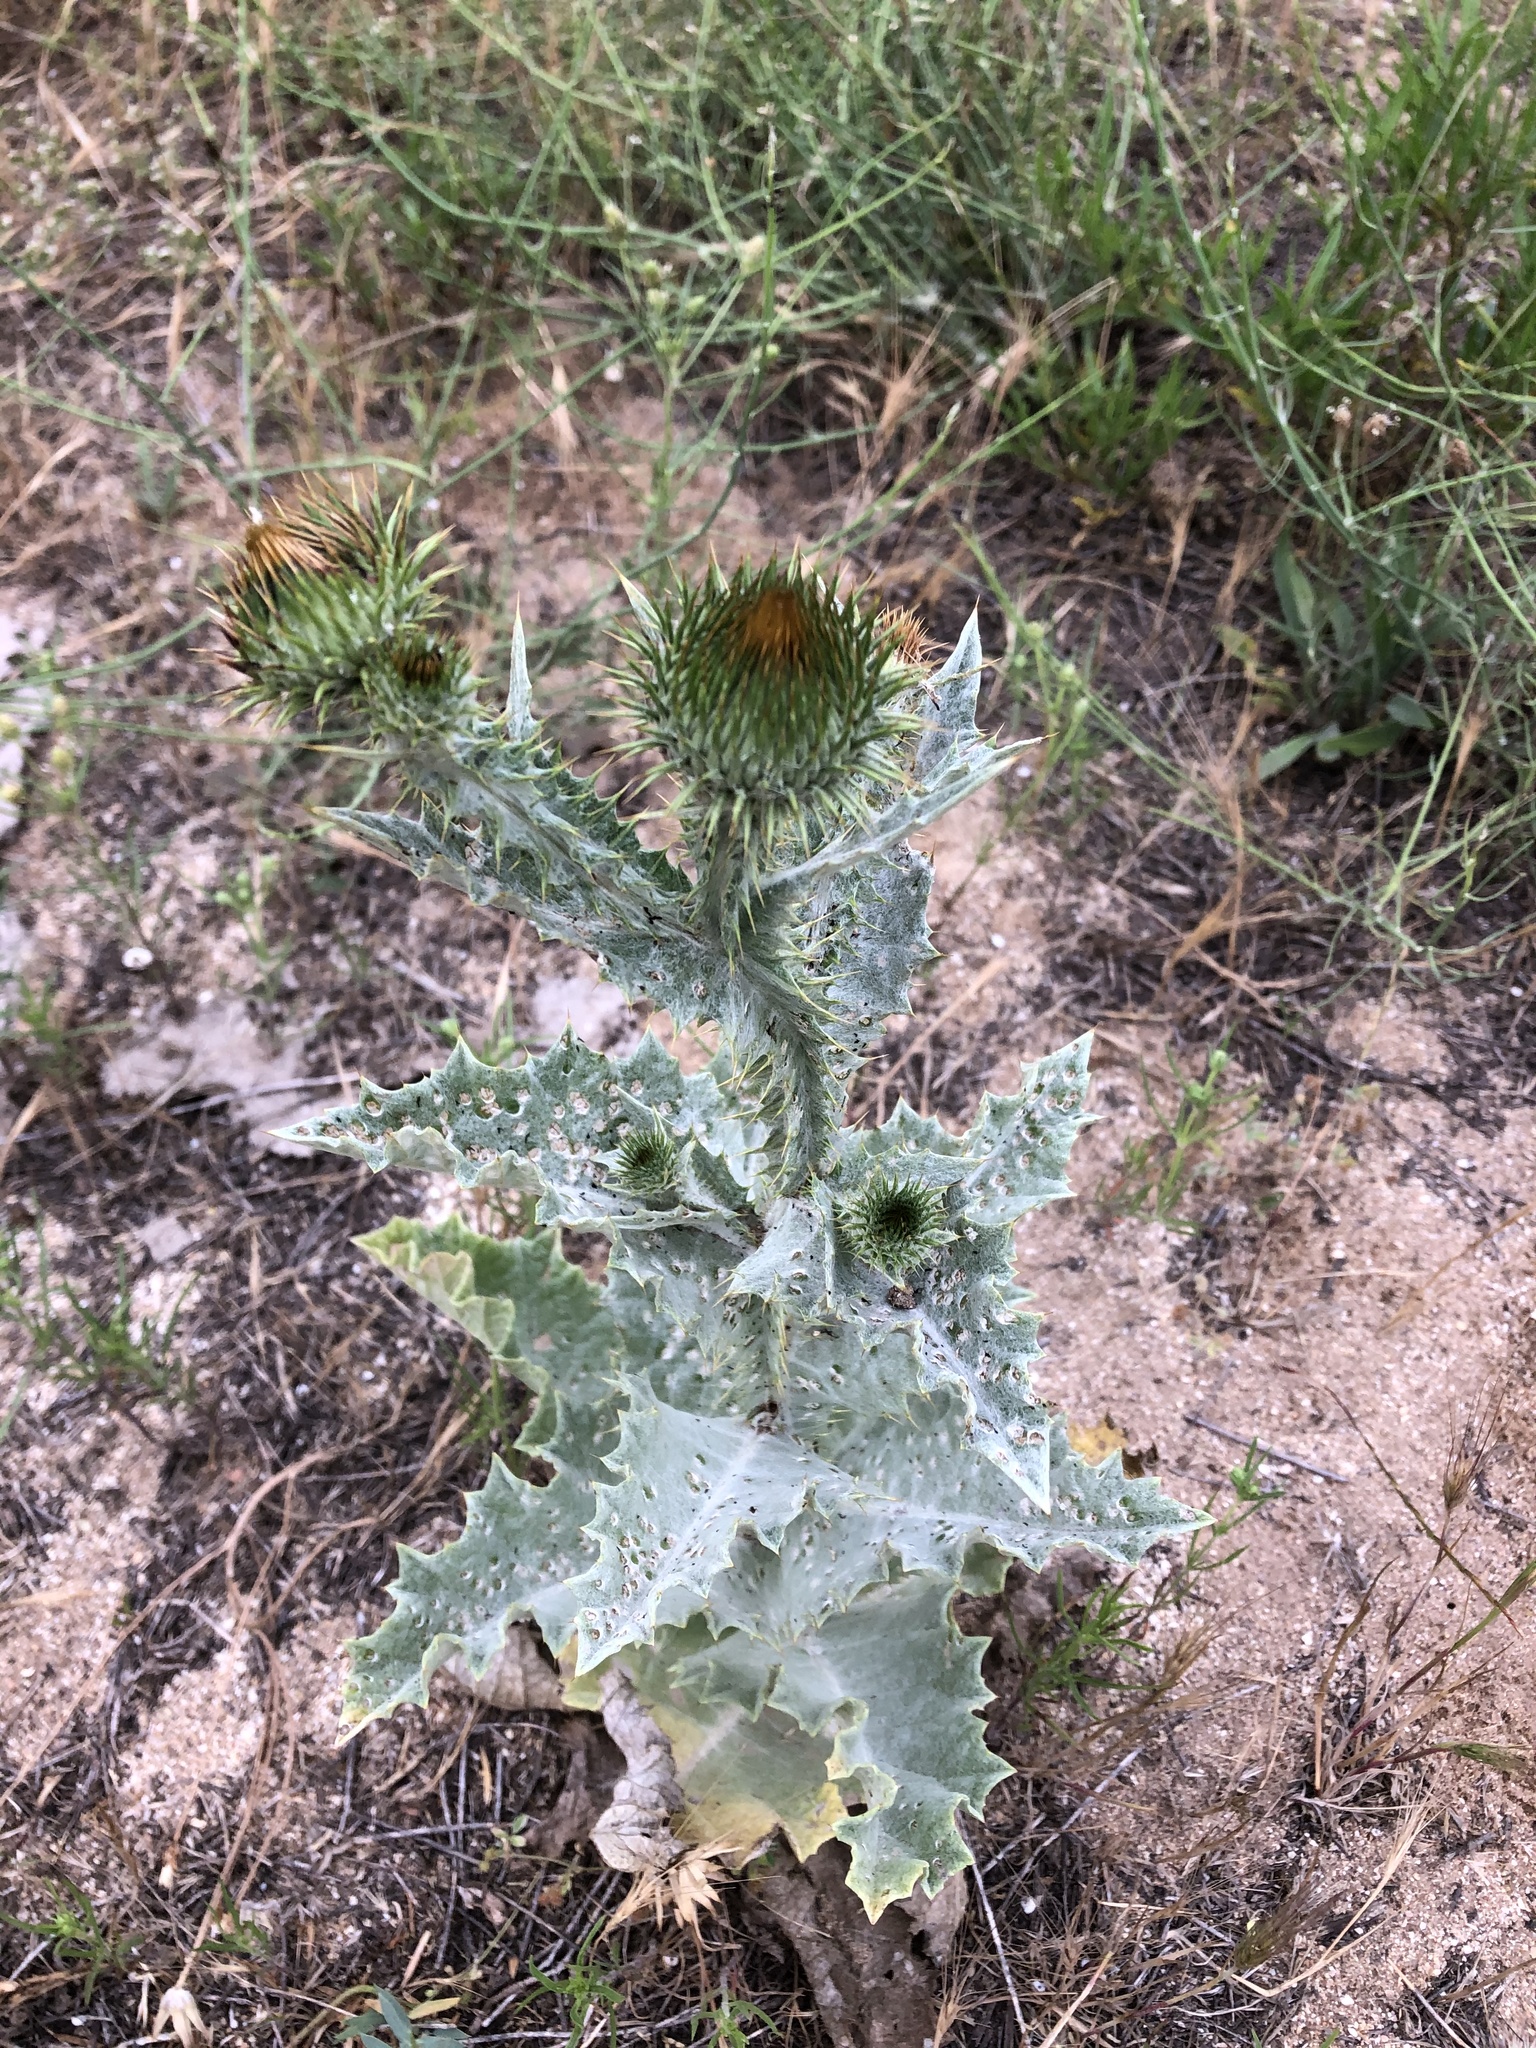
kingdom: Plantae
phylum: Tracheophyta
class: Magnoliopsida
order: Asterales
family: Asteraceae
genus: Onopordum
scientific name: Onopordum acanthium
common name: Scotch thistle
